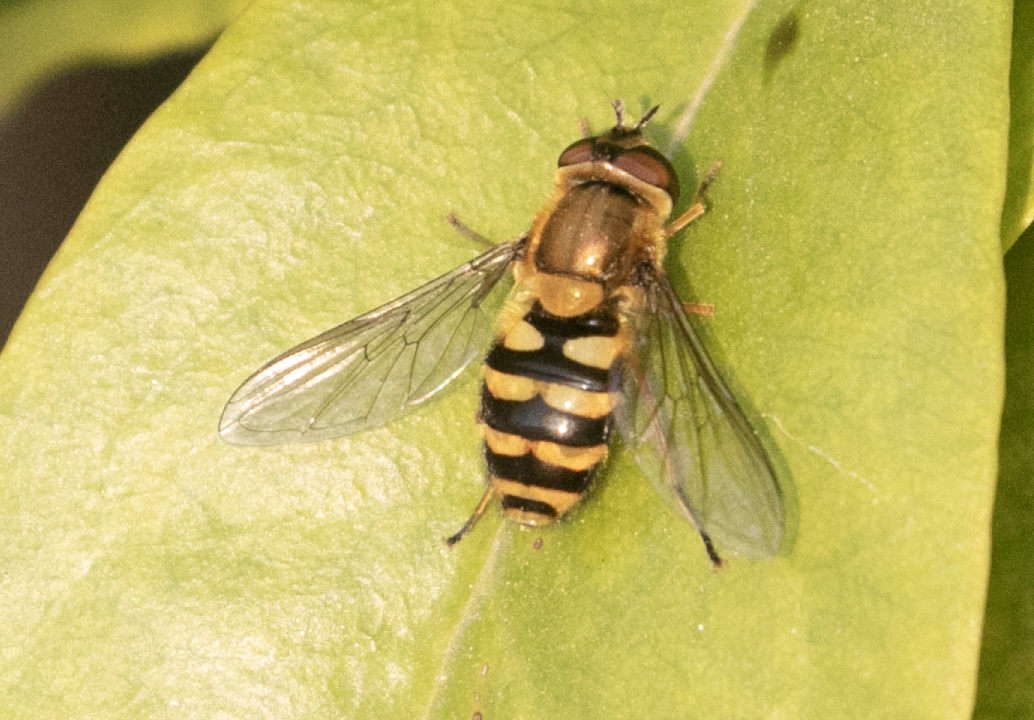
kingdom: Animalia
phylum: Arthropoda
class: Insecta
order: Diptera
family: Syrphidae
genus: Syrphus
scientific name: Syrphus
